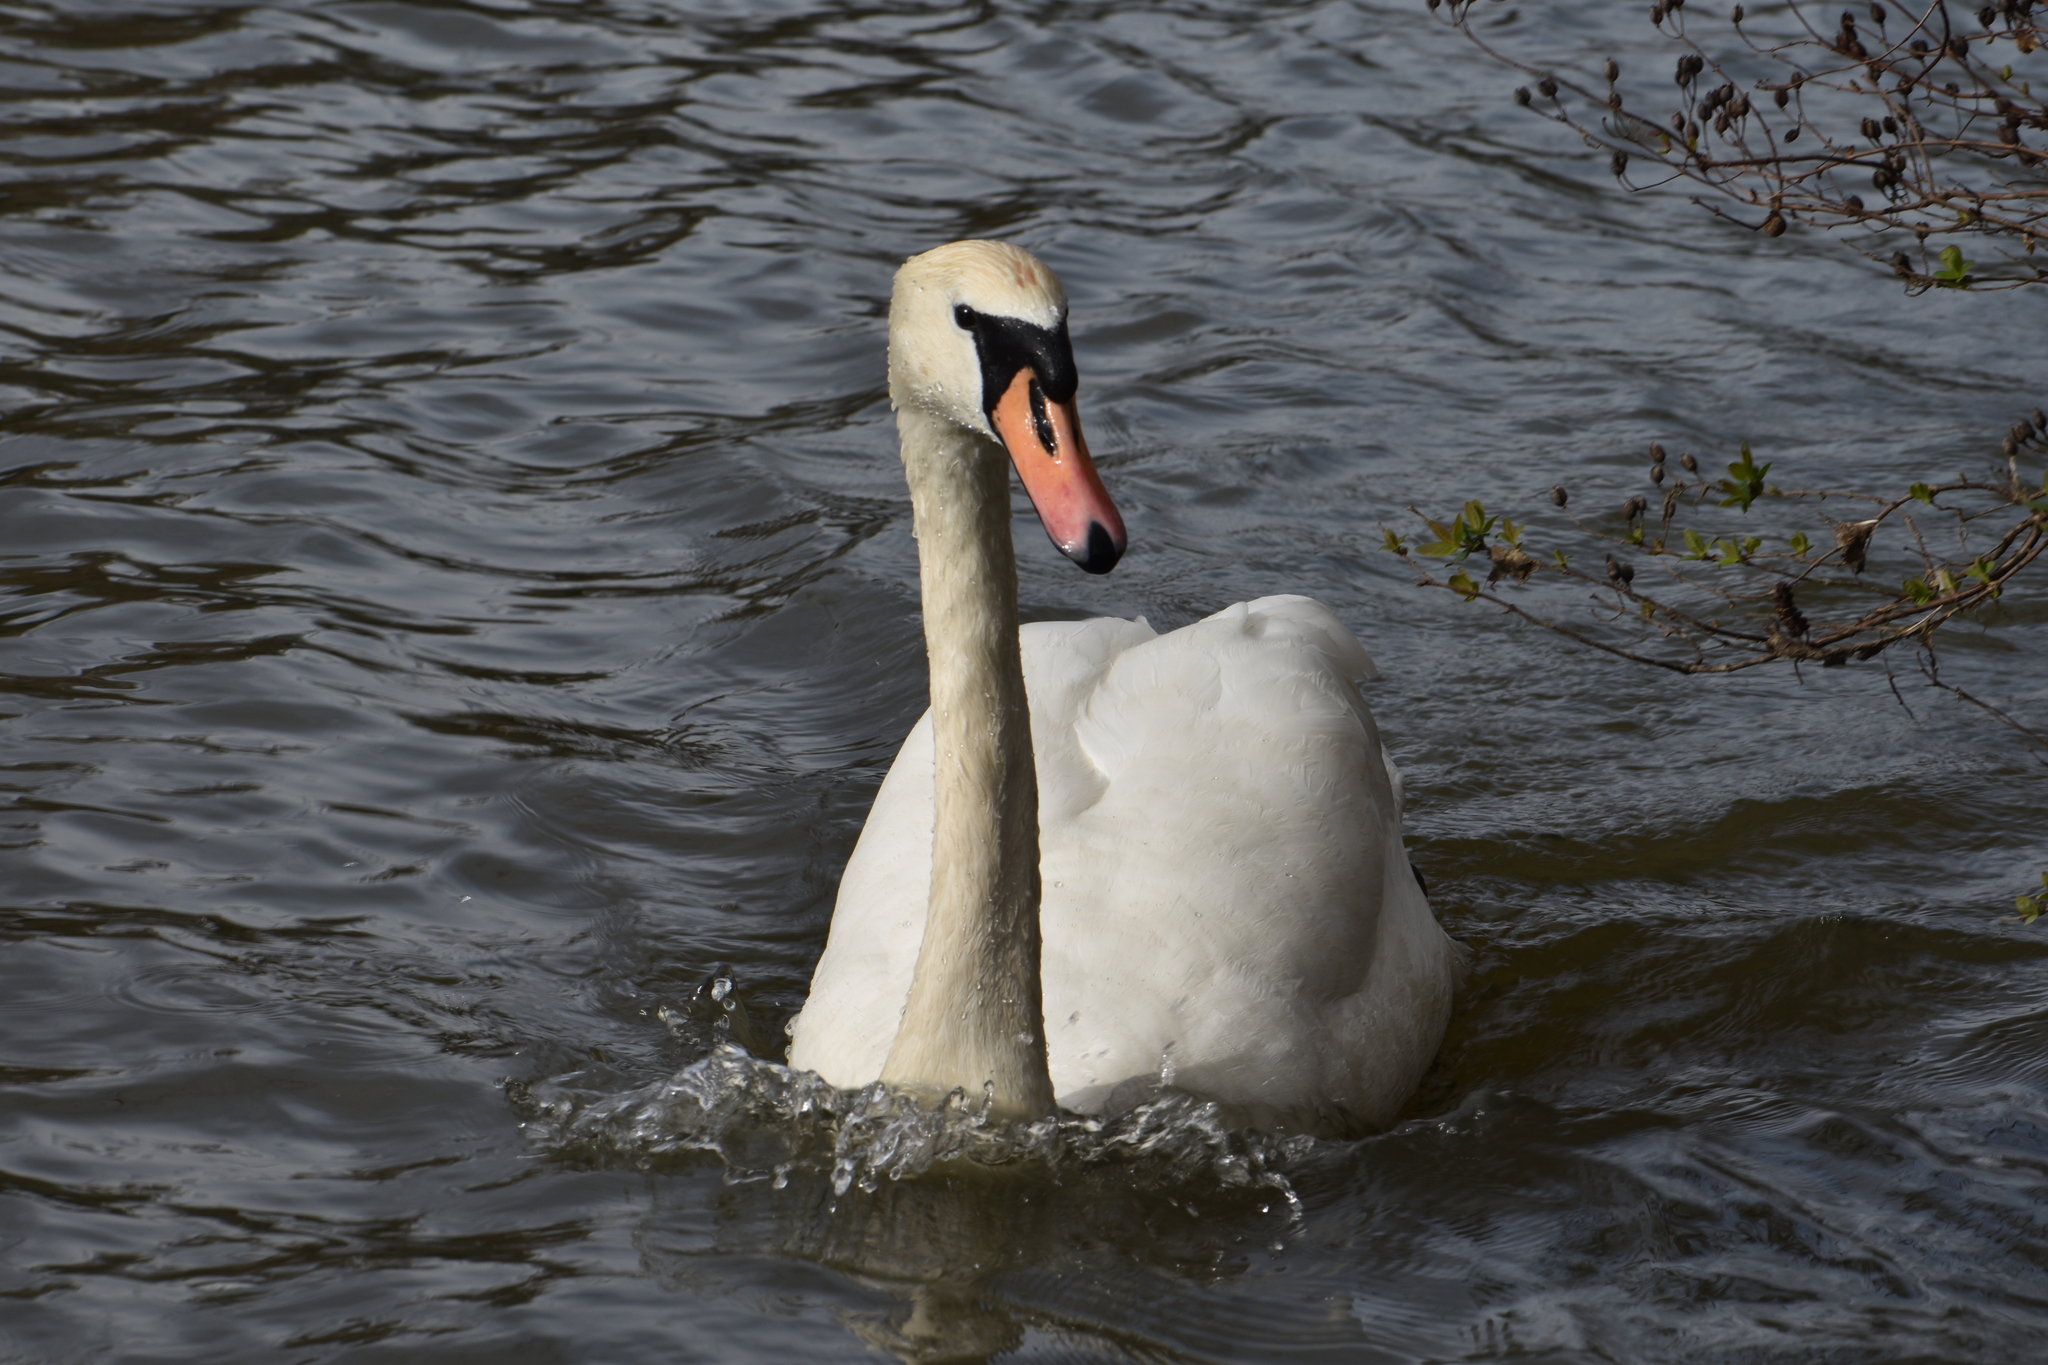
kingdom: Animalia
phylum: Chordata
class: Aves
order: Anseriformes
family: Anatidae
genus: Cygnus
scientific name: Cygnus olor
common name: Mute swan
